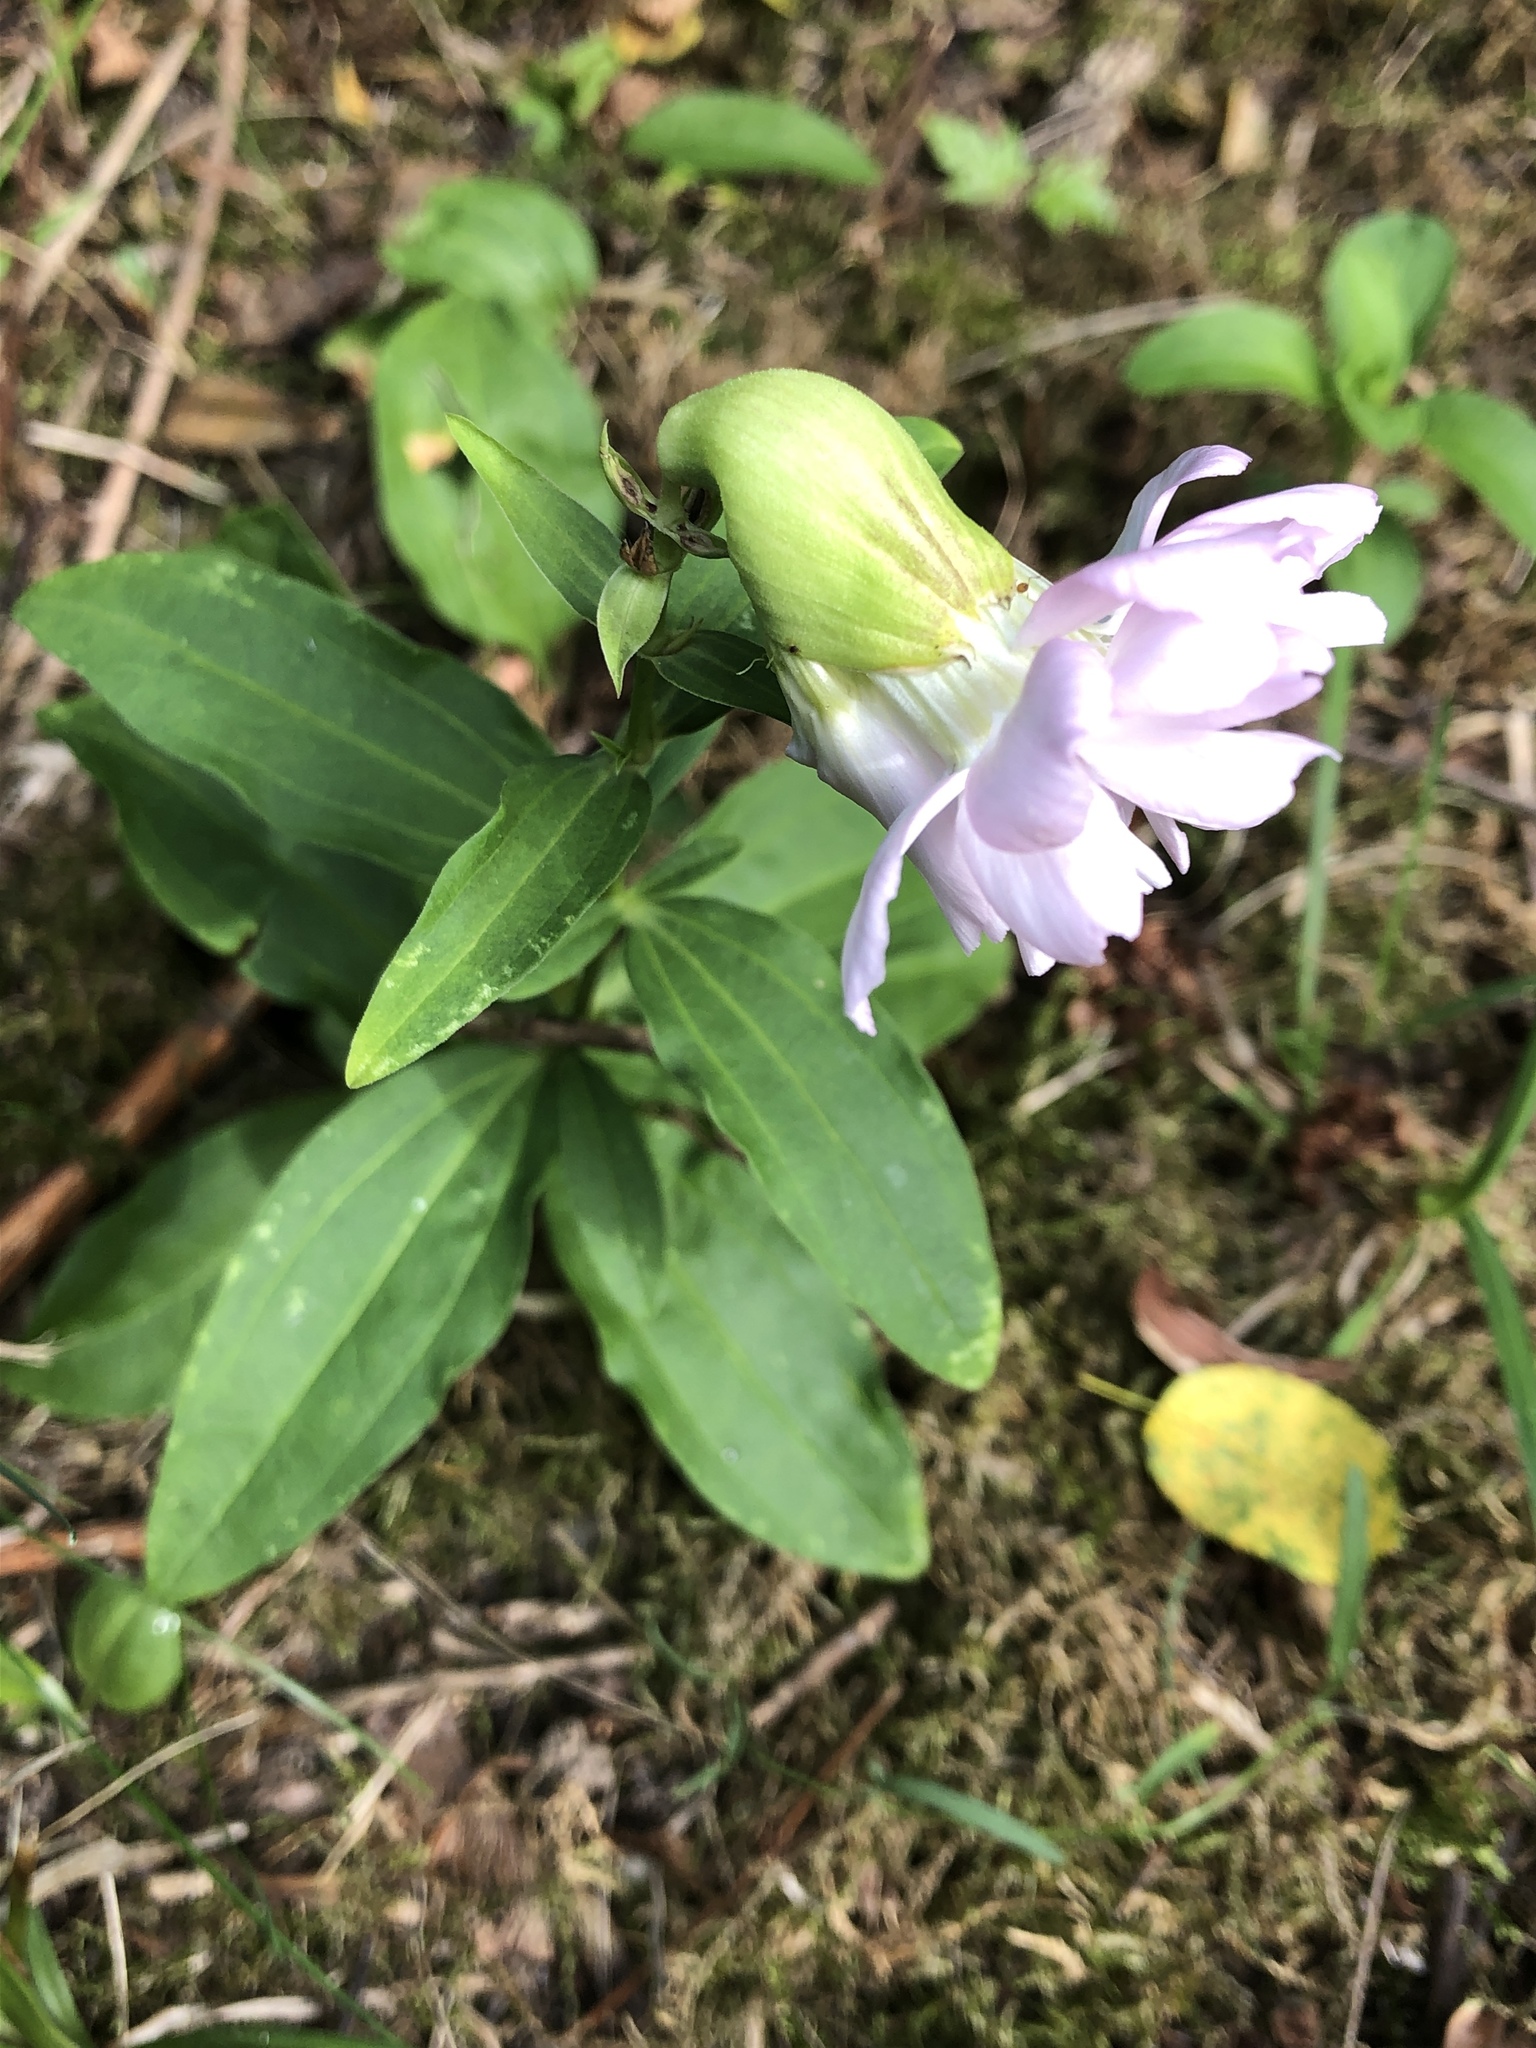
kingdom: Plantae
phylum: Tracheophyta
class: Magnoliopsida
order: Caryophyllales
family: Caryophyllaceae
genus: Saponaria
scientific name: Saponaria officinalis
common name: Soapwort
